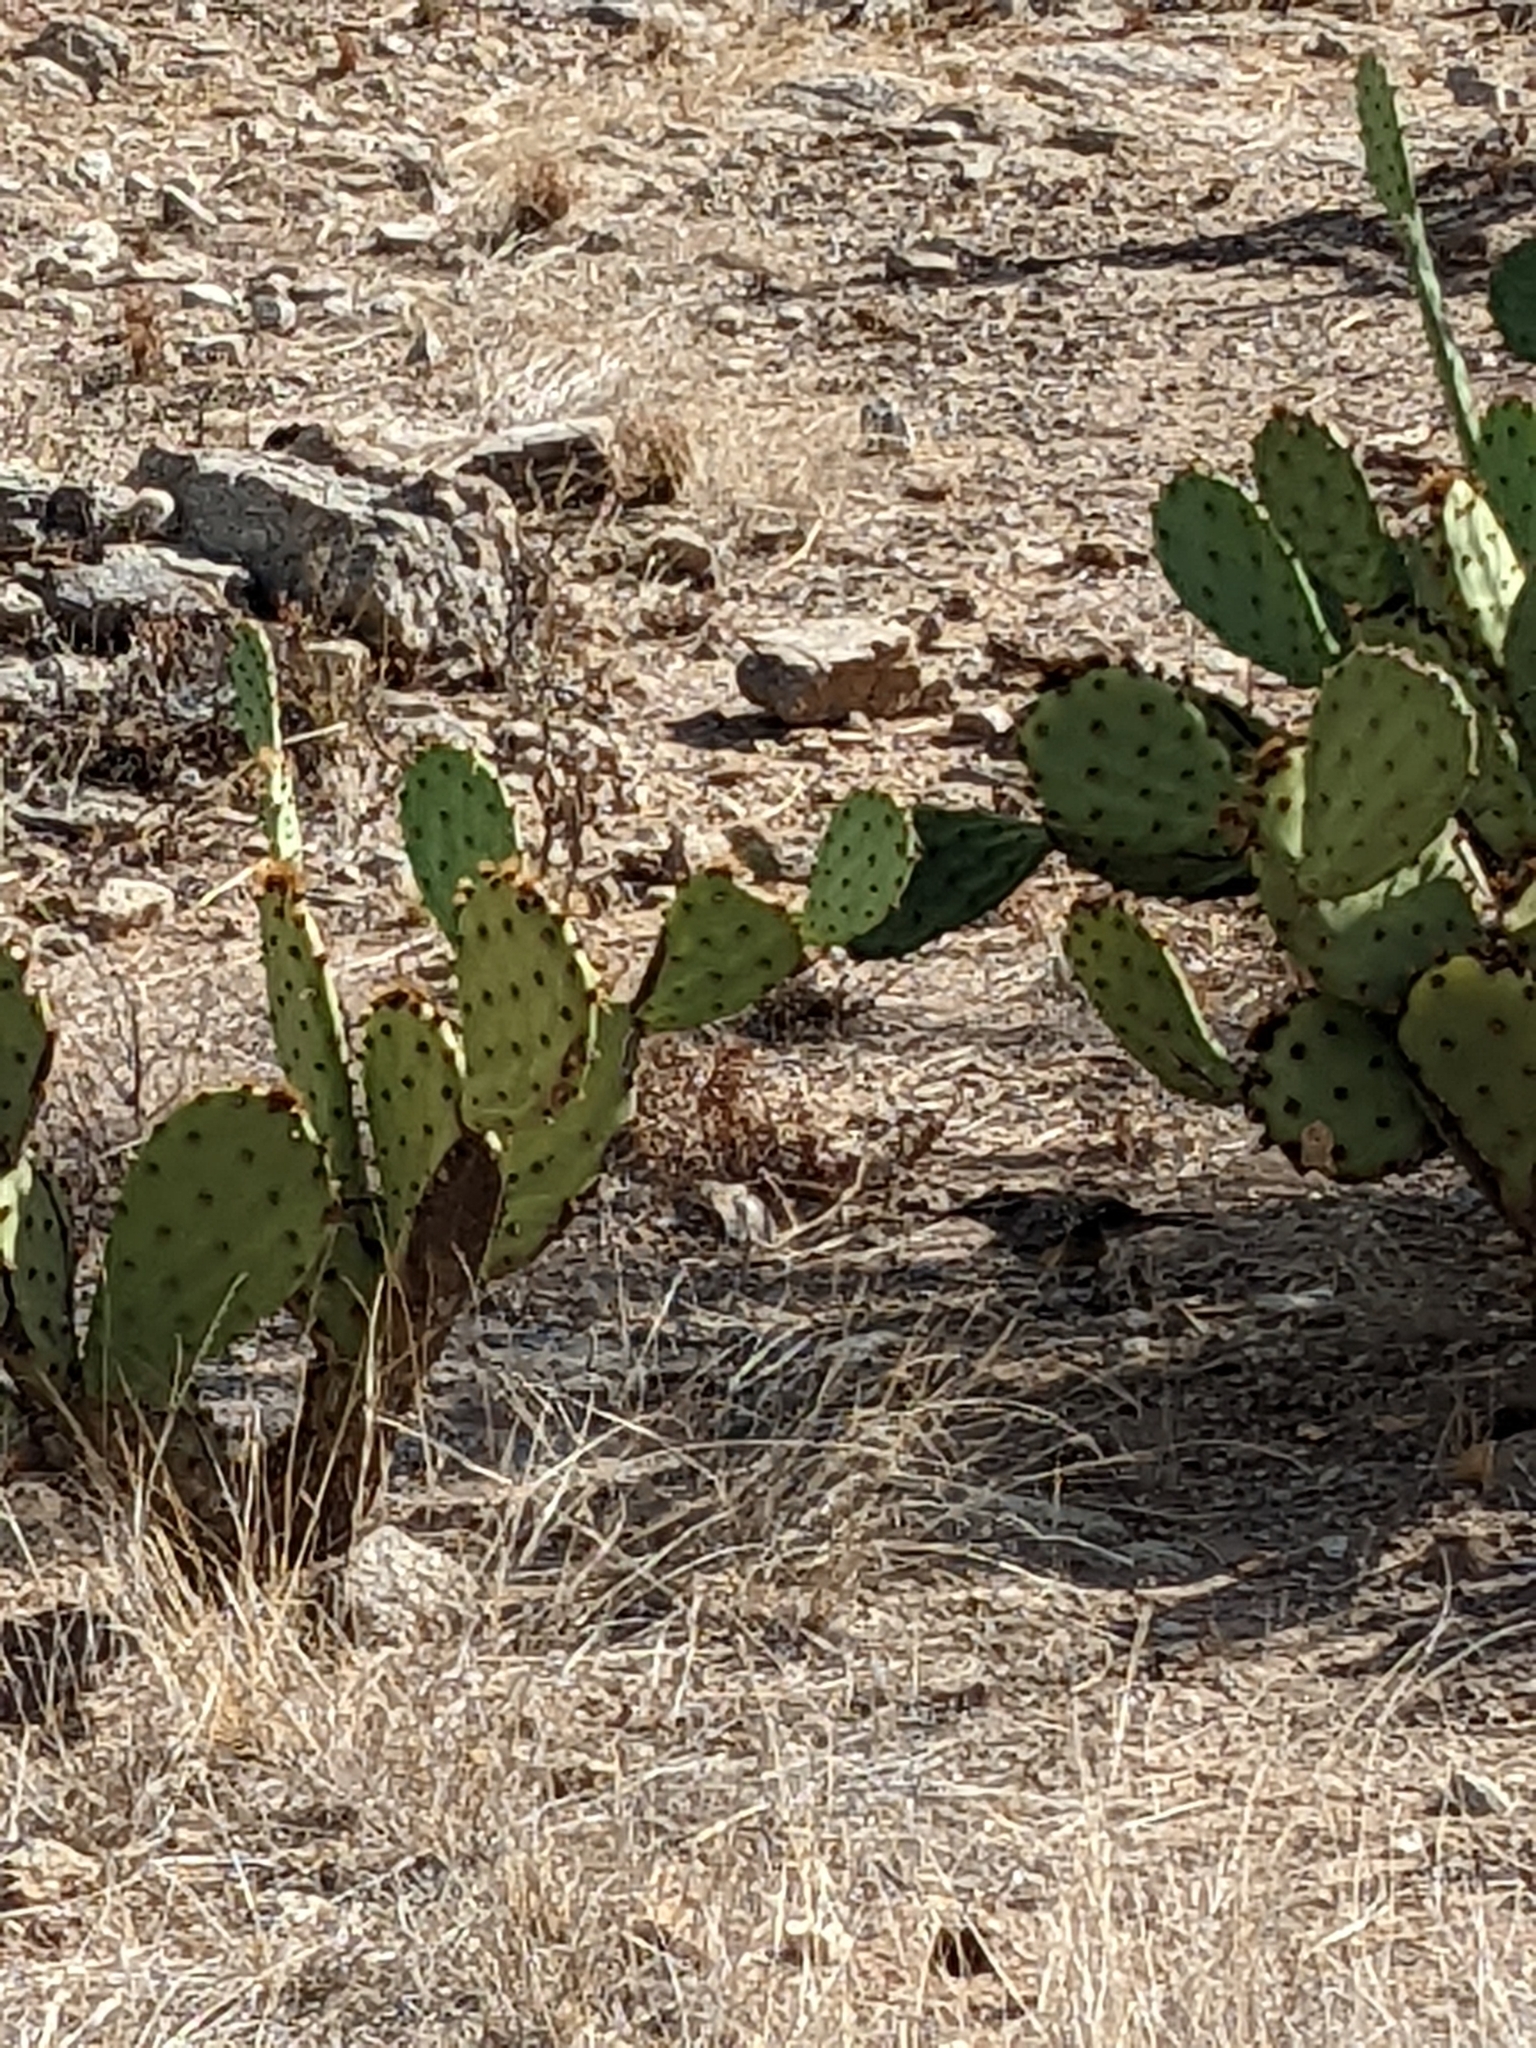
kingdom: Animalia
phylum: Chordata
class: Aves
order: Passeriformes
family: Troglodytidae
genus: Campylorhynchus
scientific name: Campylorhynchus brunneicapillus
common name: Cactus wren
